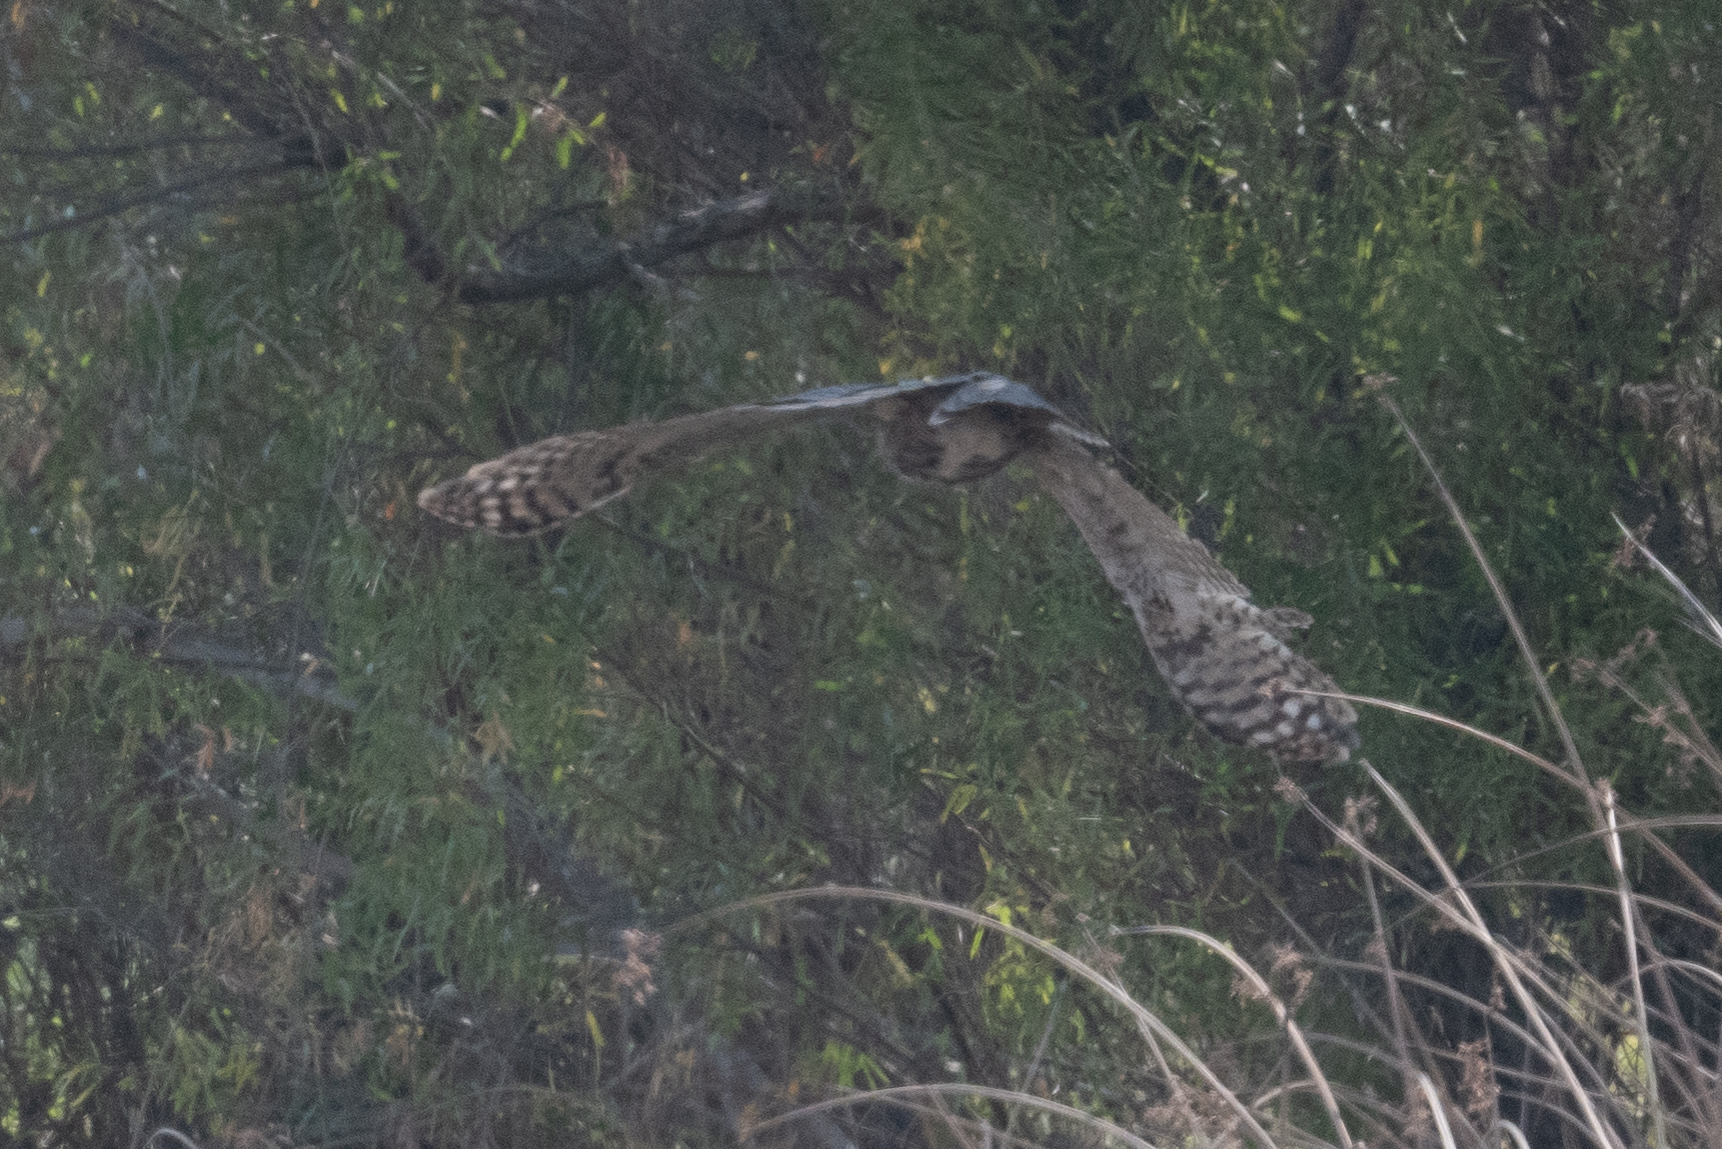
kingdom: Animalia
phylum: Chordata
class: Aves
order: Strigiformes
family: Strigidae
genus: Bubo
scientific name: Bubo virginianus
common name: Great horned owl
